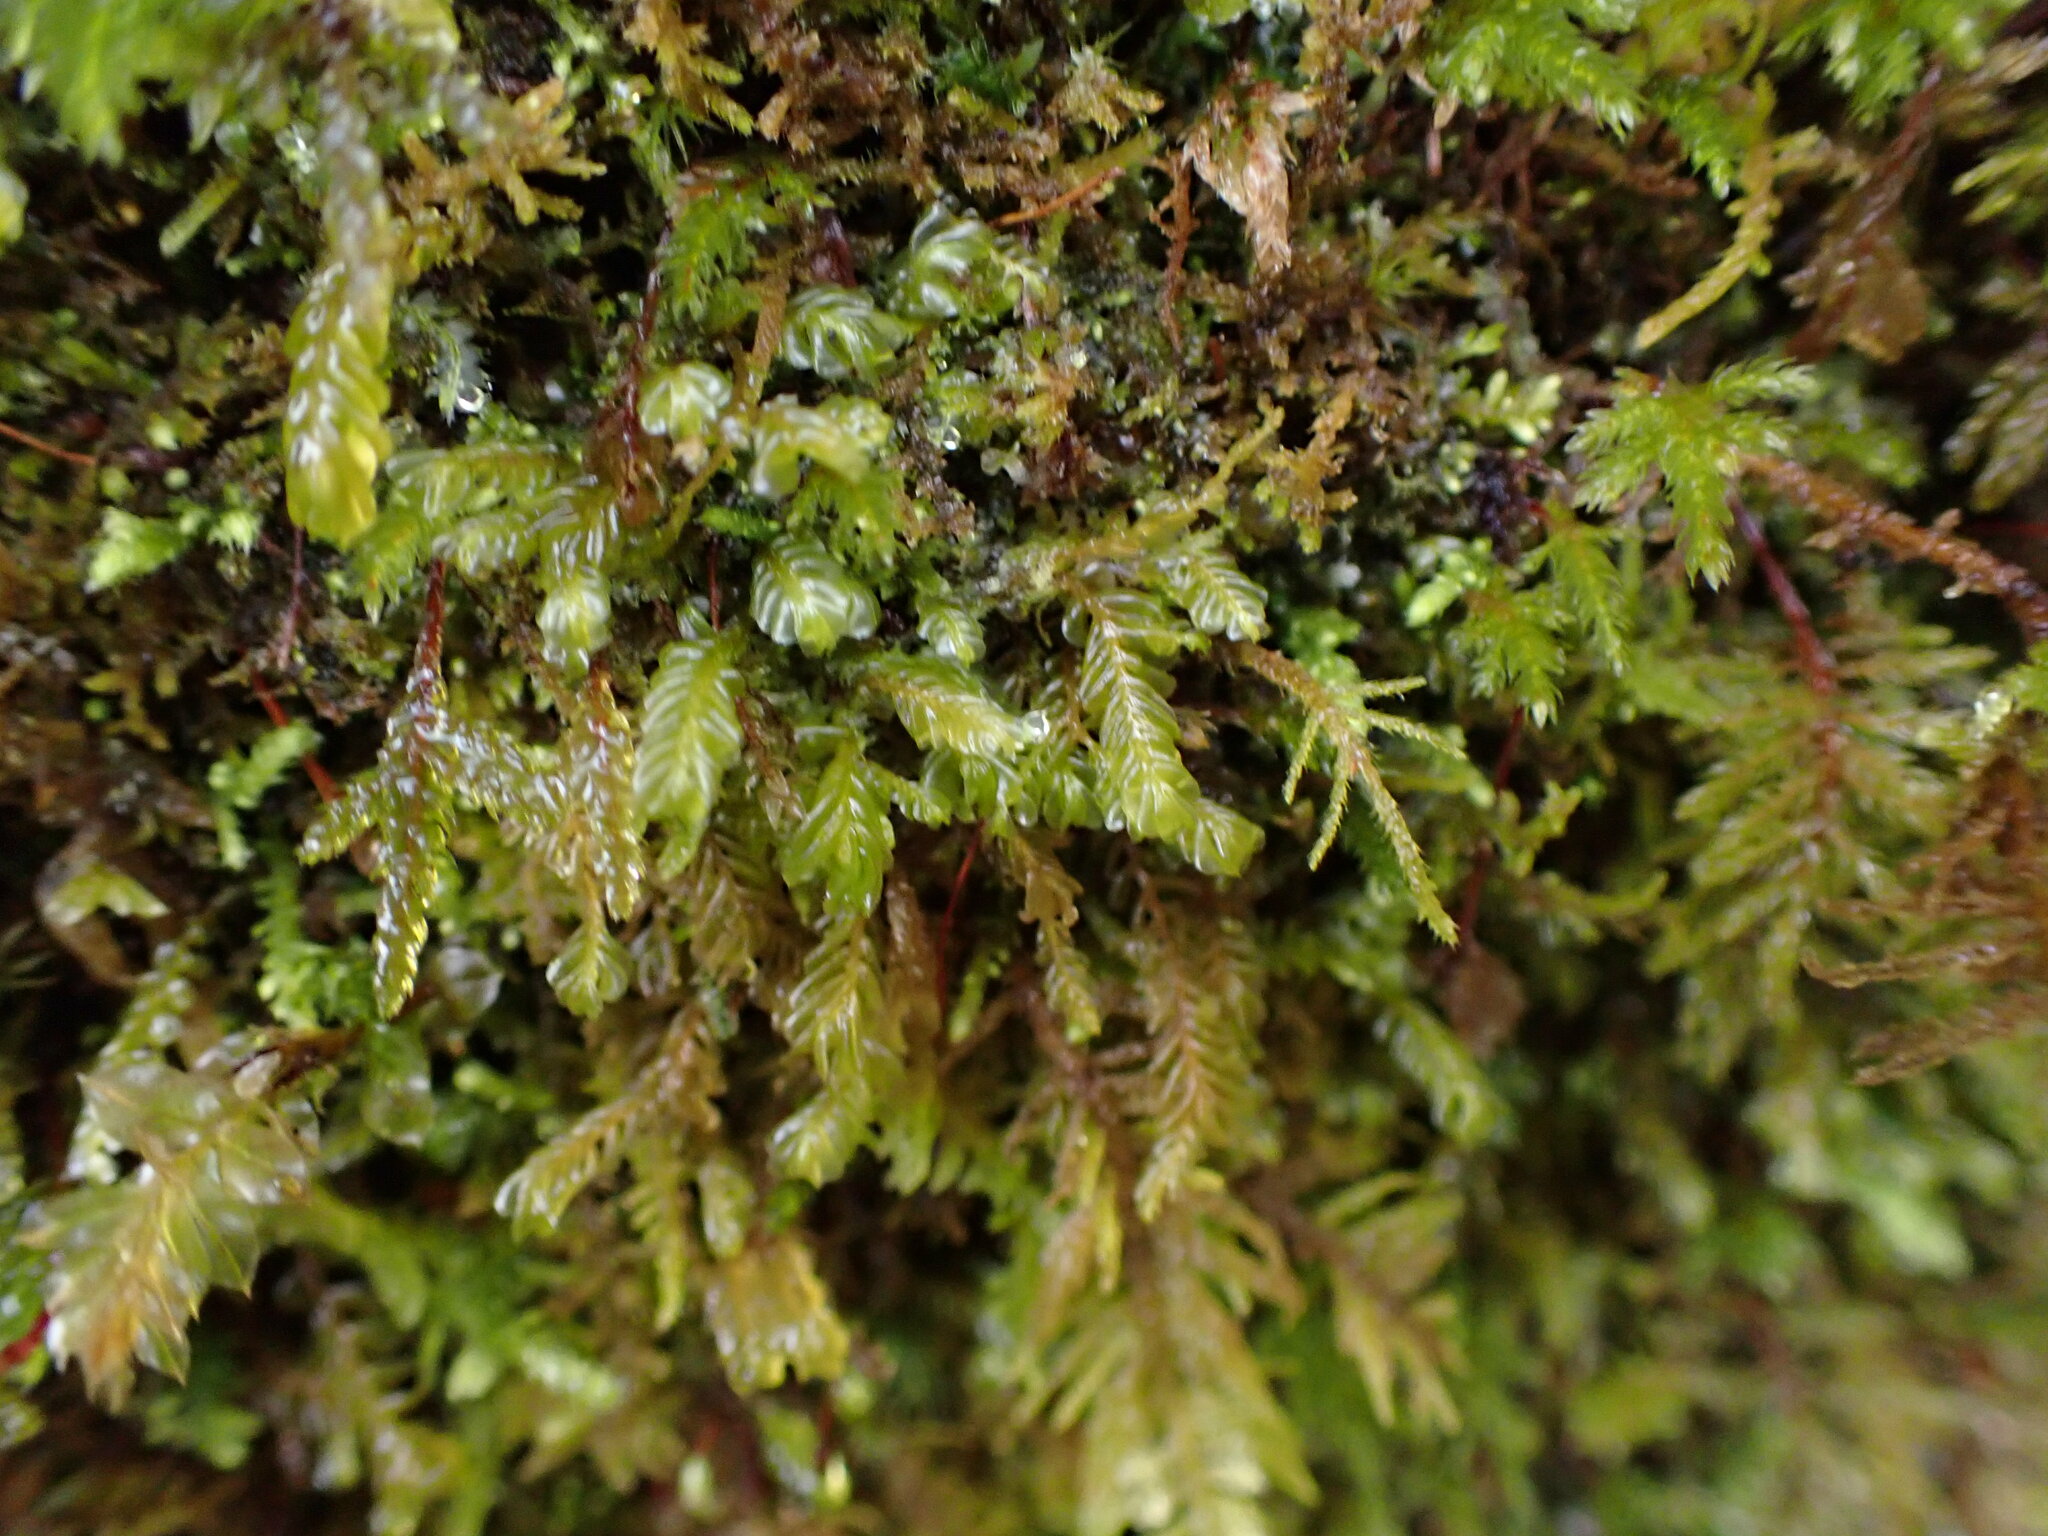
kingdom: Plantae
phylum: Marchantiophyta
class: Jungermanniopsida
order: Jungermanniales
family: Plagiochilaceae
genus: Plagiochila
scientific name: Plagiochila porelloides
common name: Lesser featherwort
